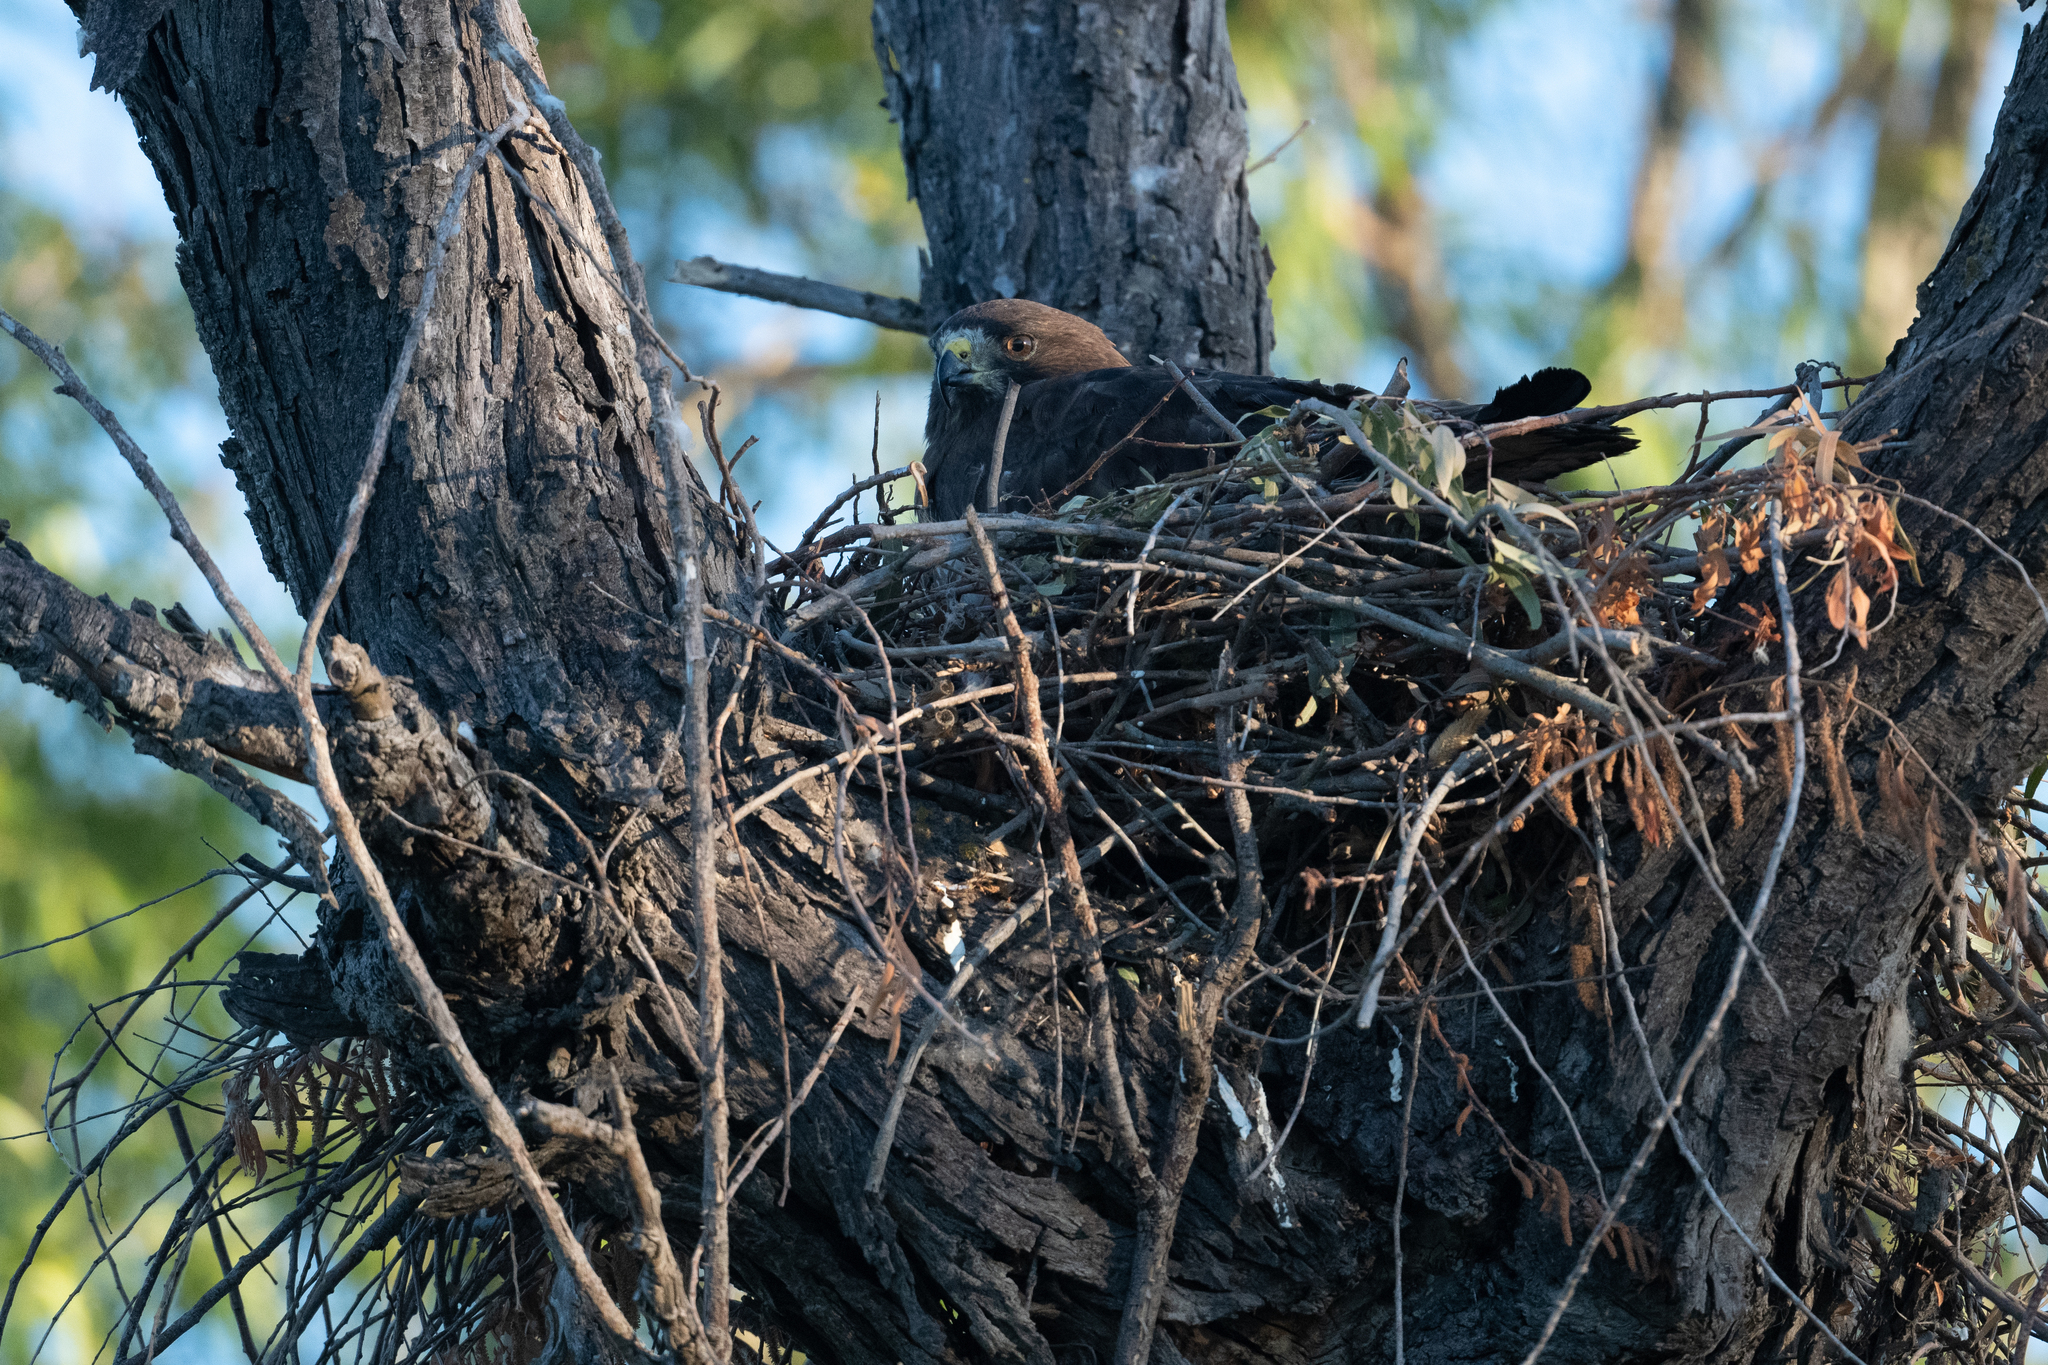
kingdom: Animalia
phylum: Chordata
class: Aves
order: Accipitriformes
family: Accipitridae
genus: Buteo
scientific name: Buteo swainsoni
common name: Swainson's hawk
